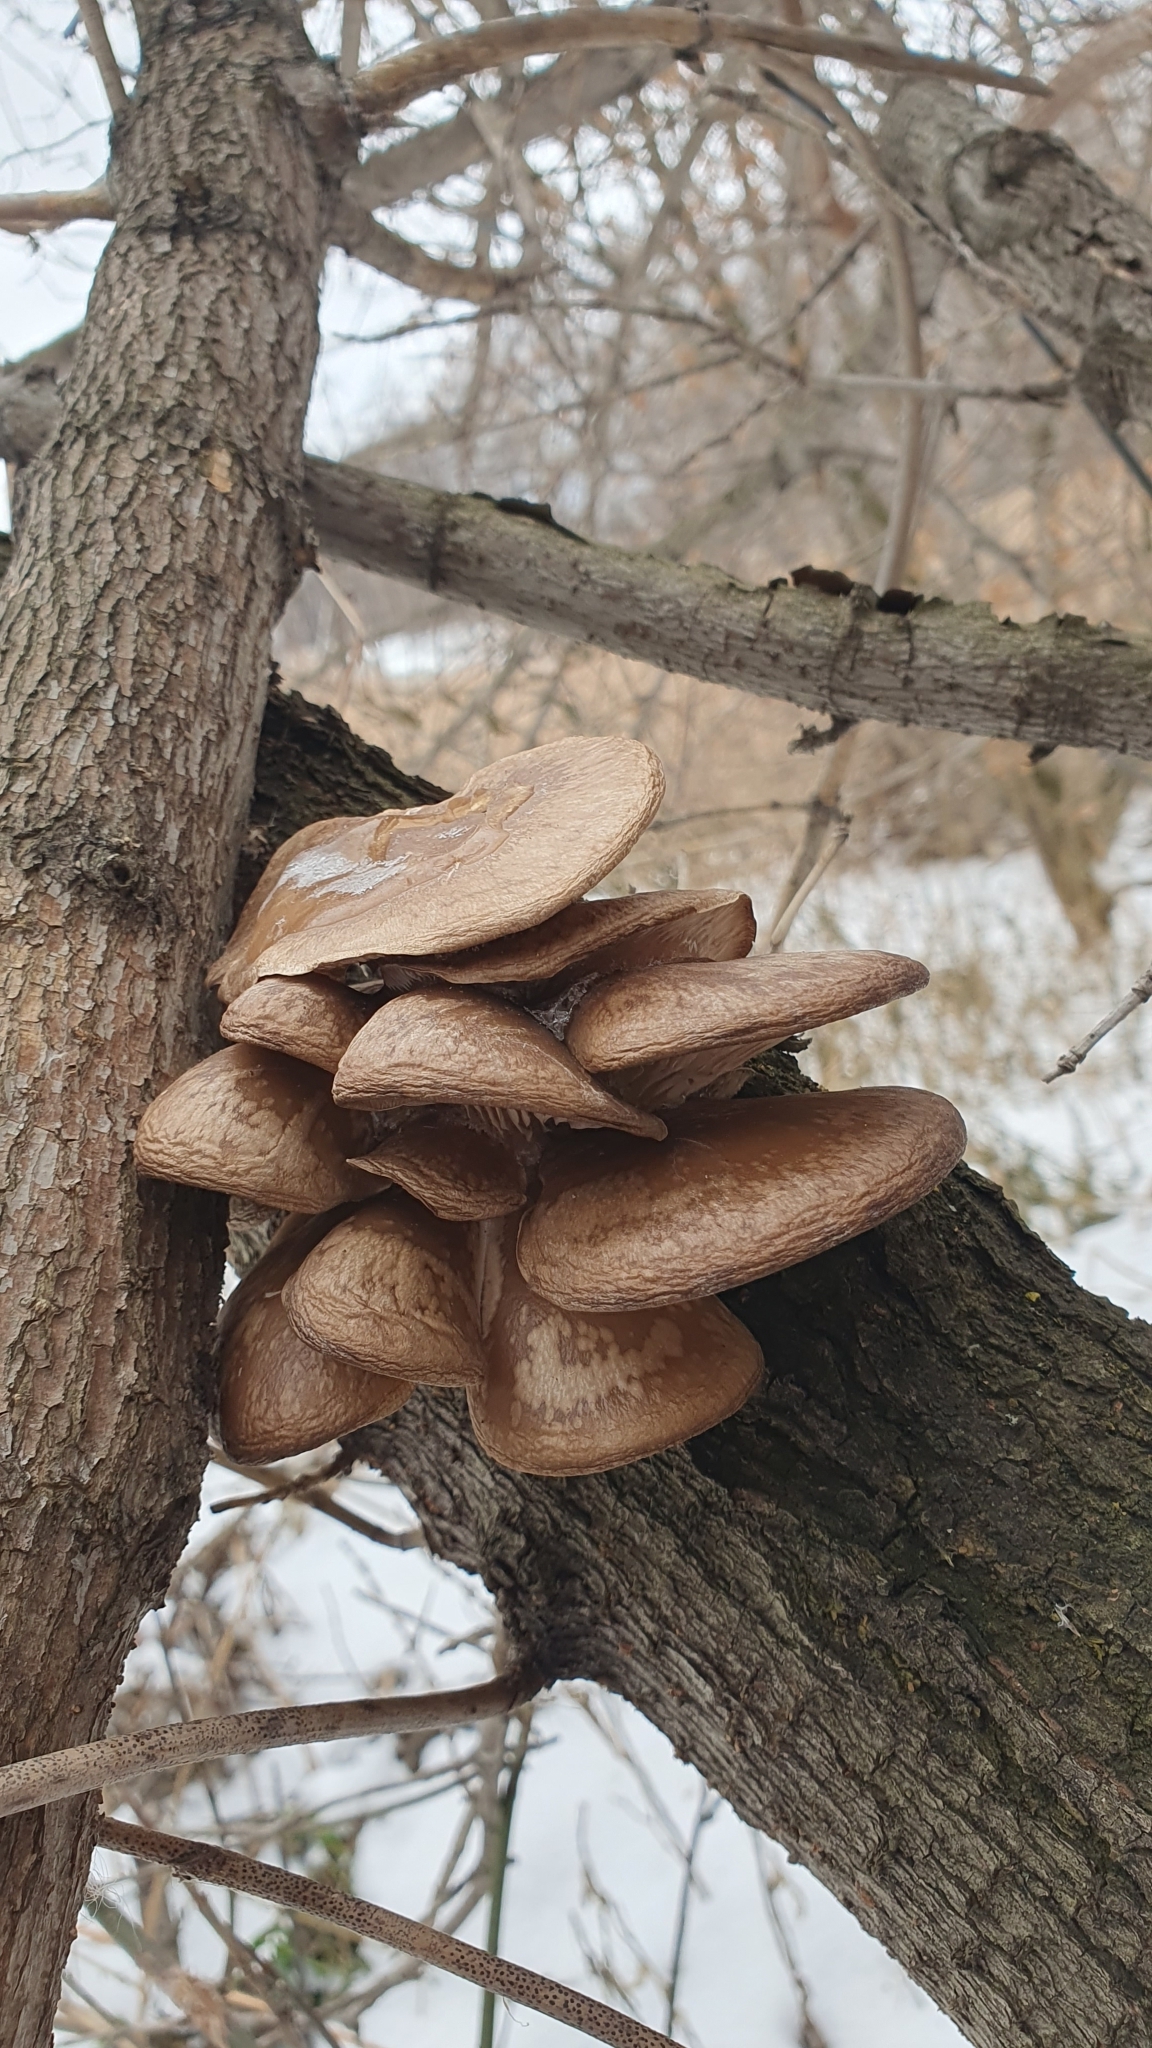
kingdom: Fungi
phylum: Basidiomycota
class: Agaricomycetes
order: Agaricales
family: Pleurotaceae
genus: Pleurotus
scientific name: Pleurotus ostreatus
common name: Oyster mushroom
